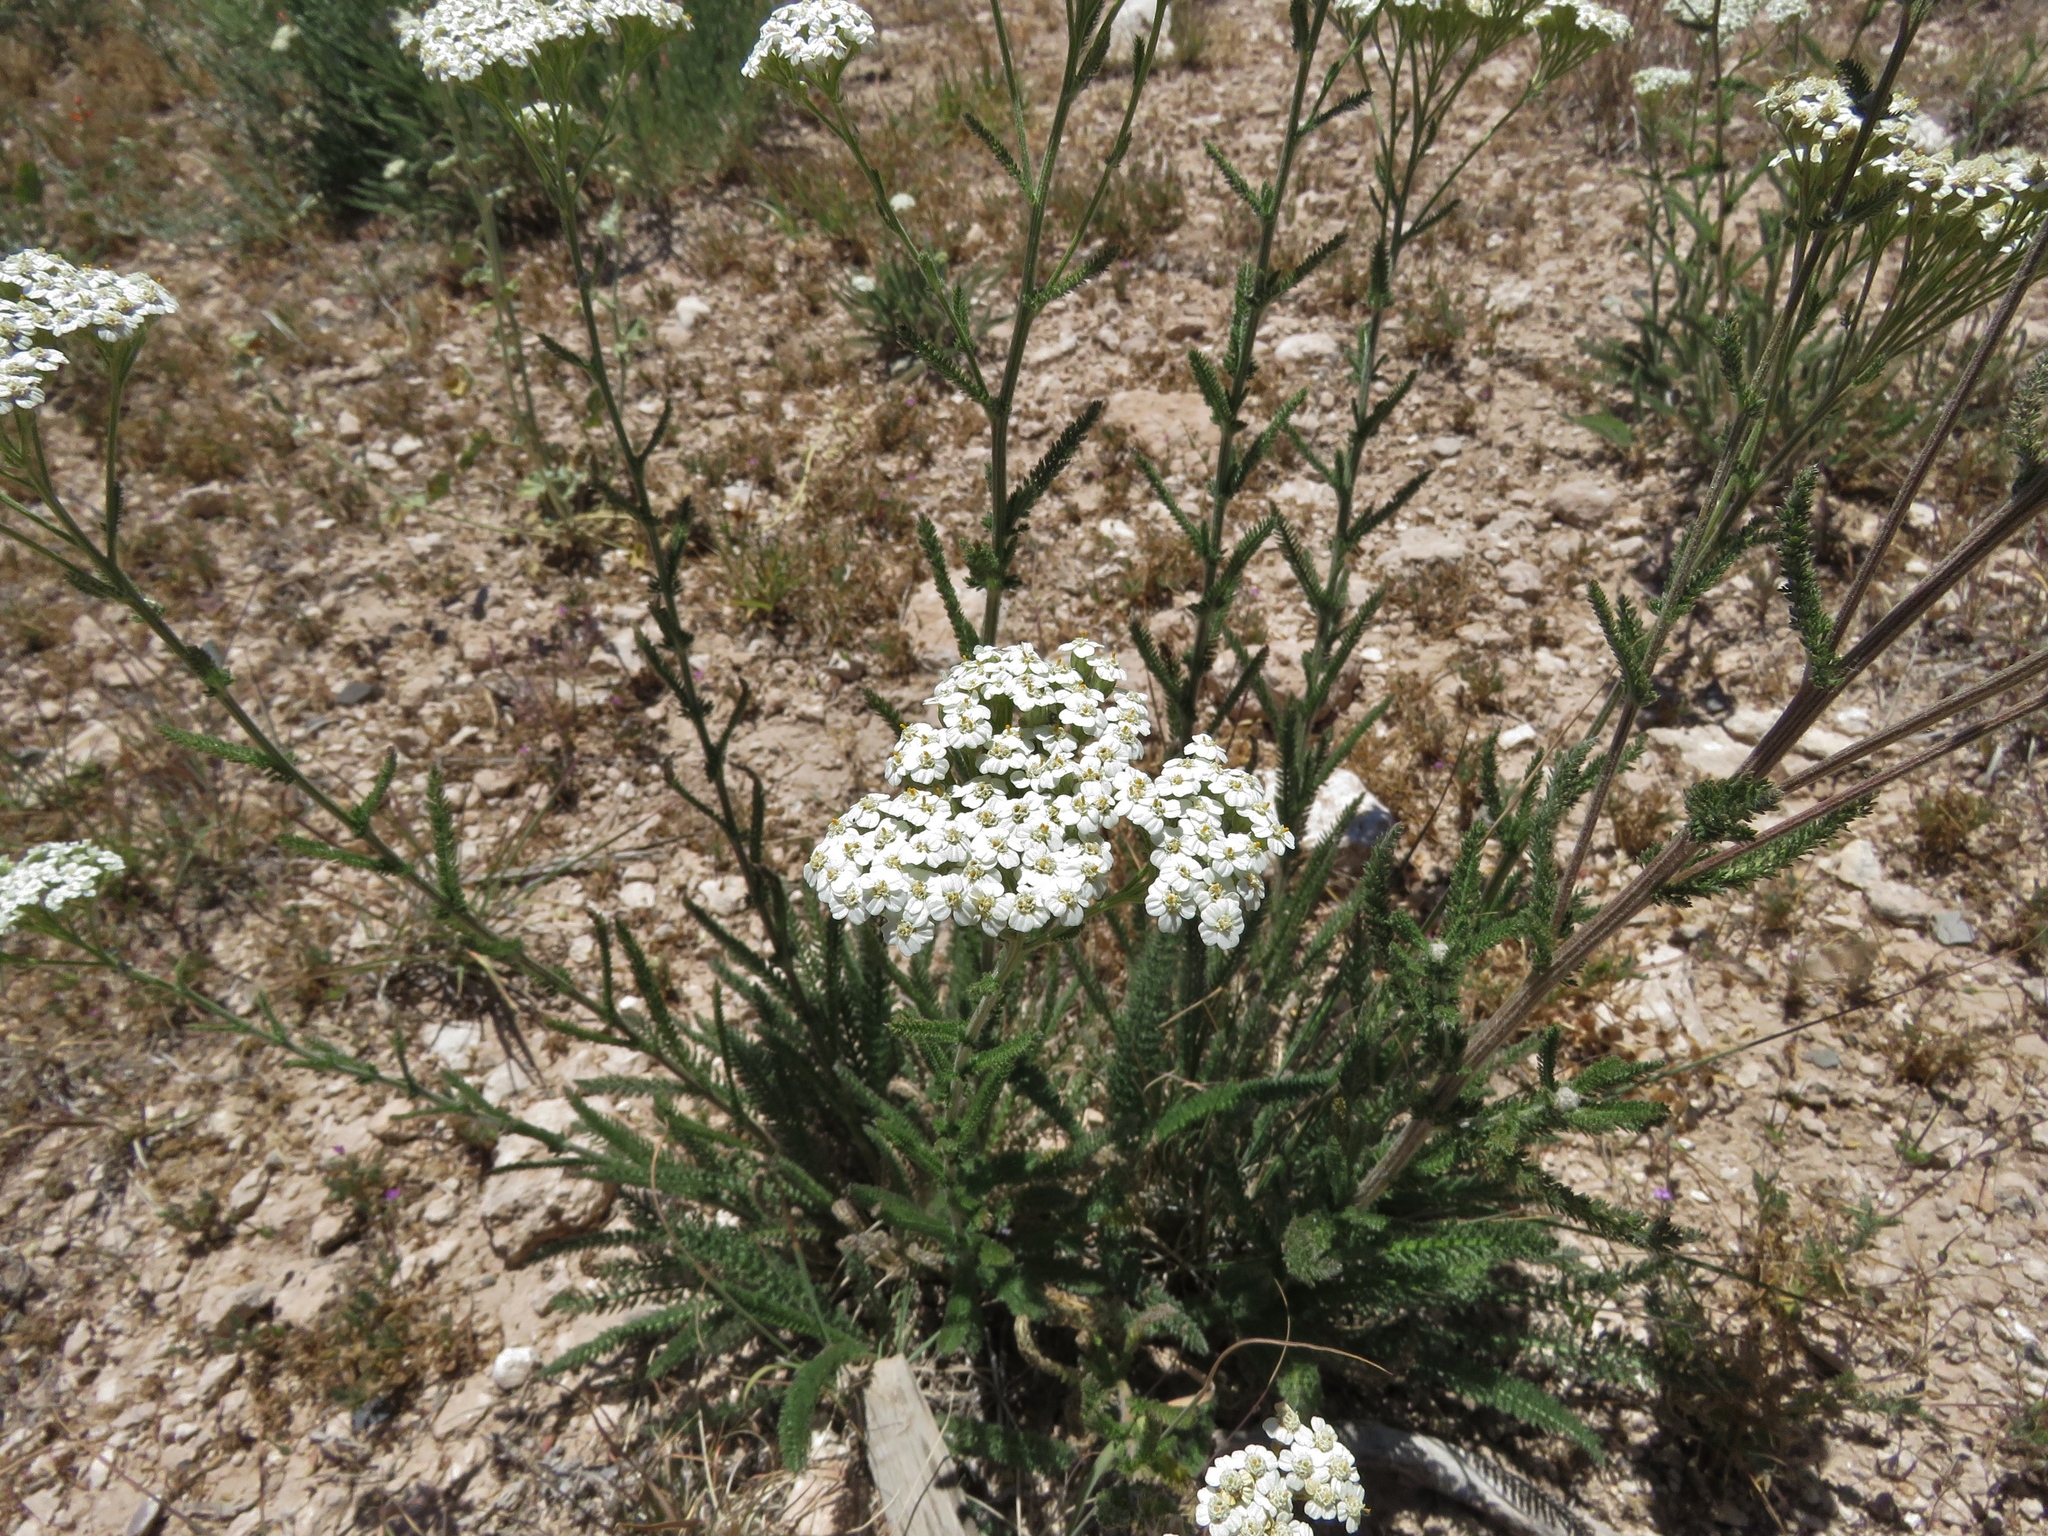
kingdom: Plantae
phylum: Tracheophyta
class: Magnoliopsida
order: Asterales
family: Asteraceae
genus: Achillea
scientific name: Achillea millefolium
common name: Yarrow
